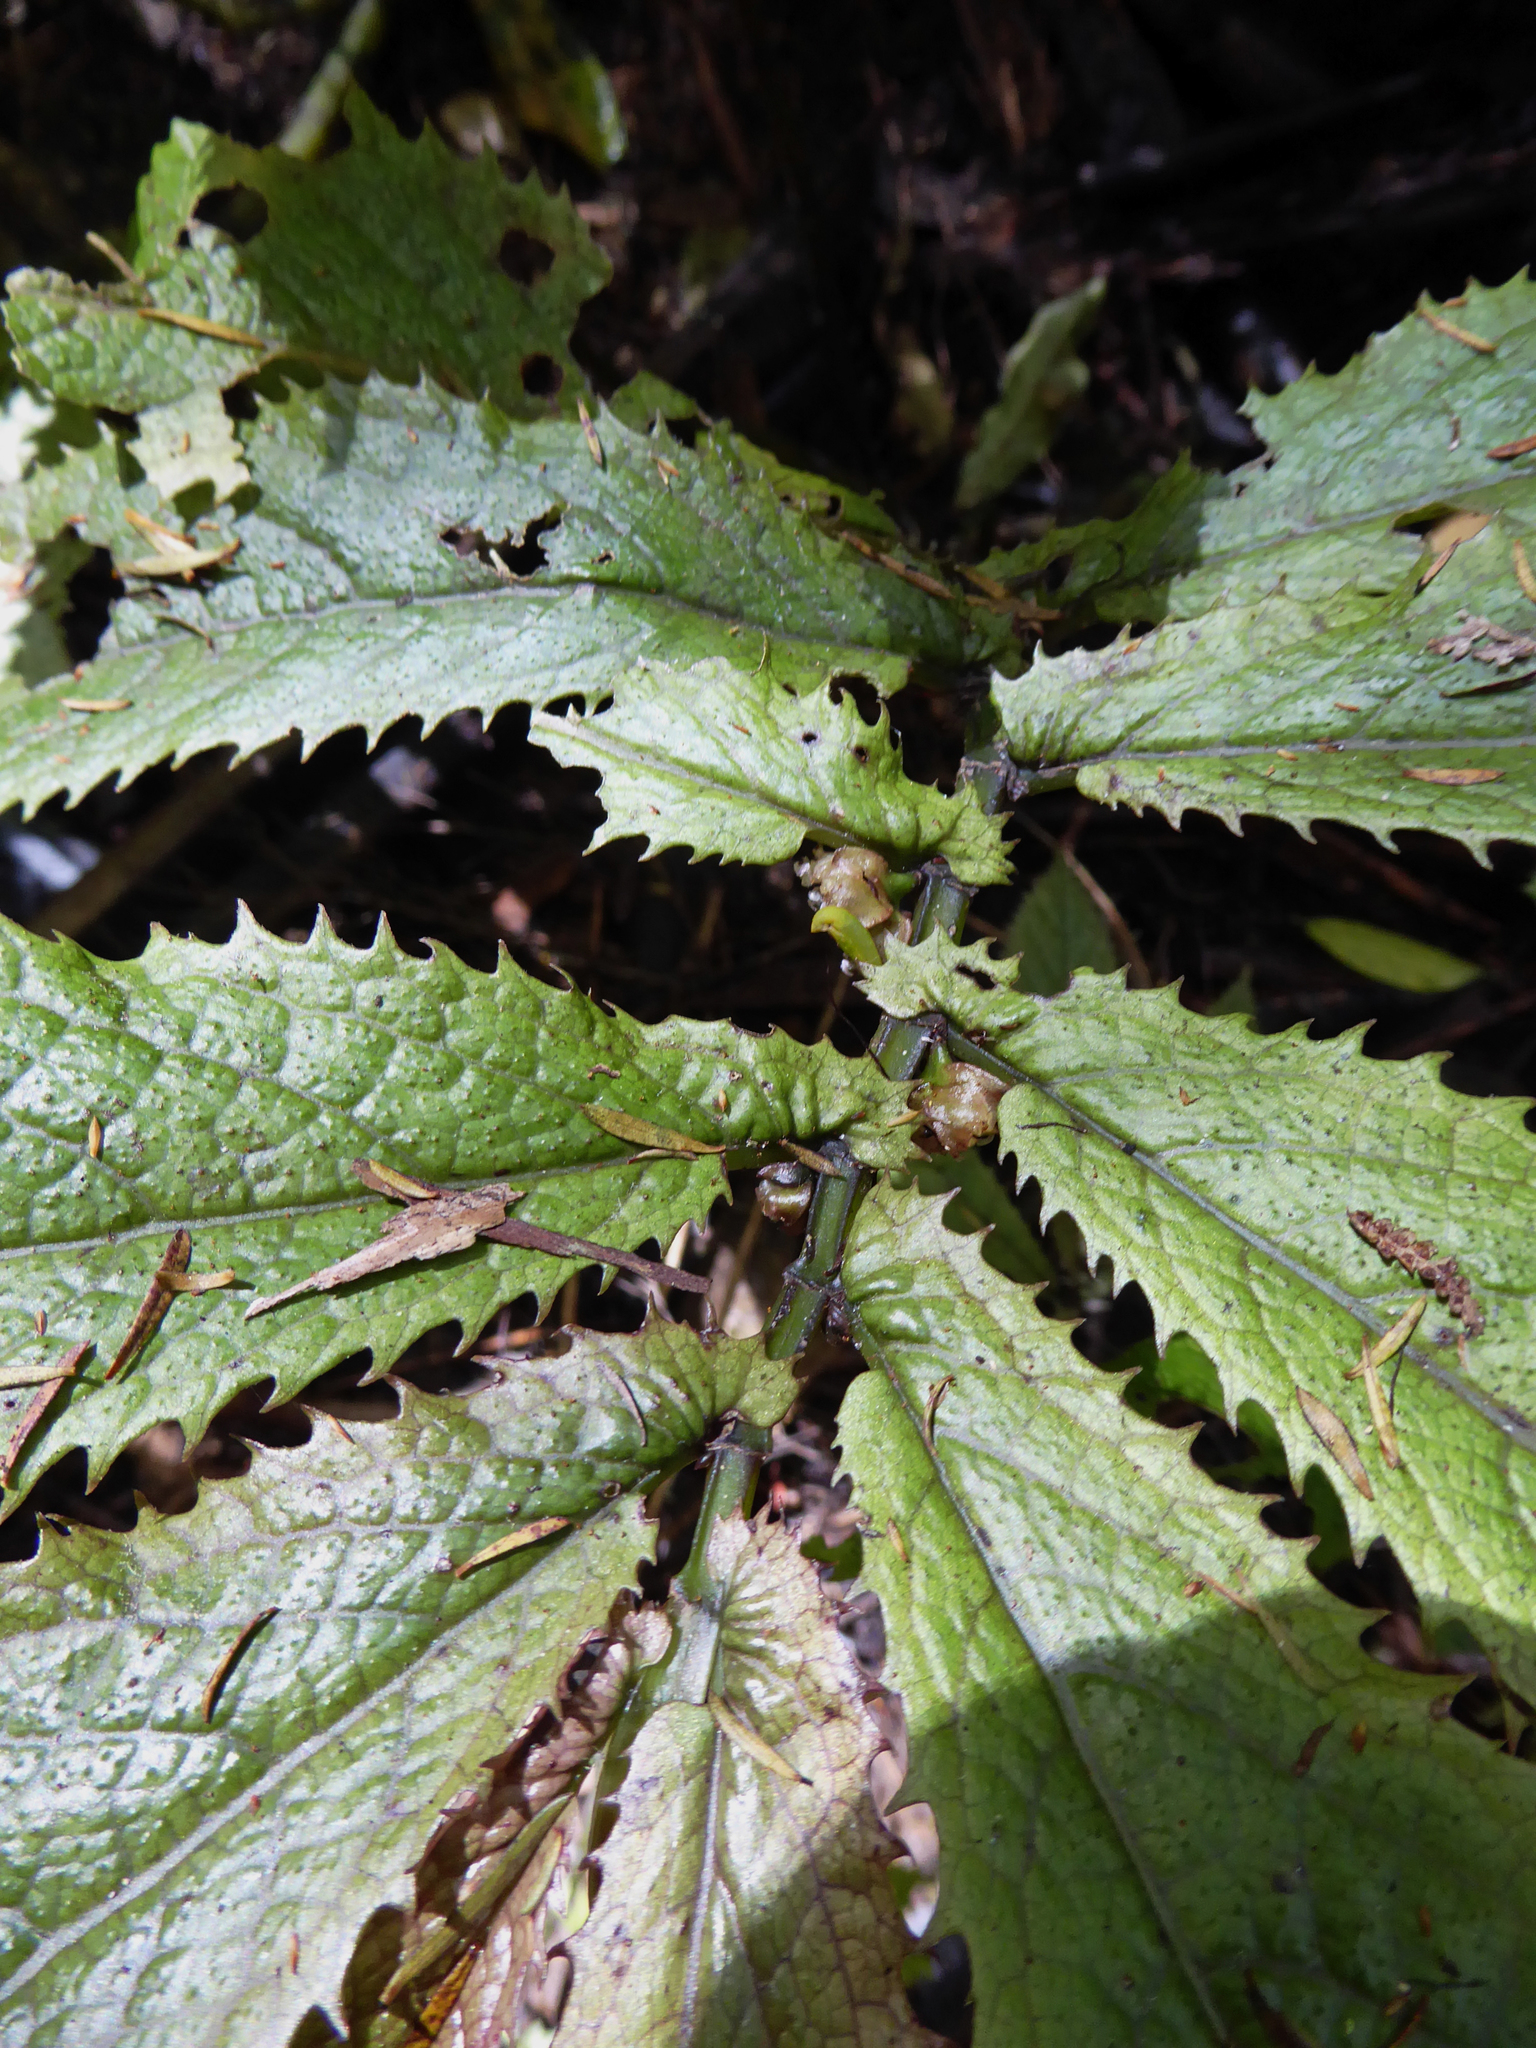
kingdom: Plantae
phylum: Tracheophyta
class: Magnoliopsida
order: Rosales
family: Urticaceae
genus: Elatostema
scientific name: Elatostema rugosum
